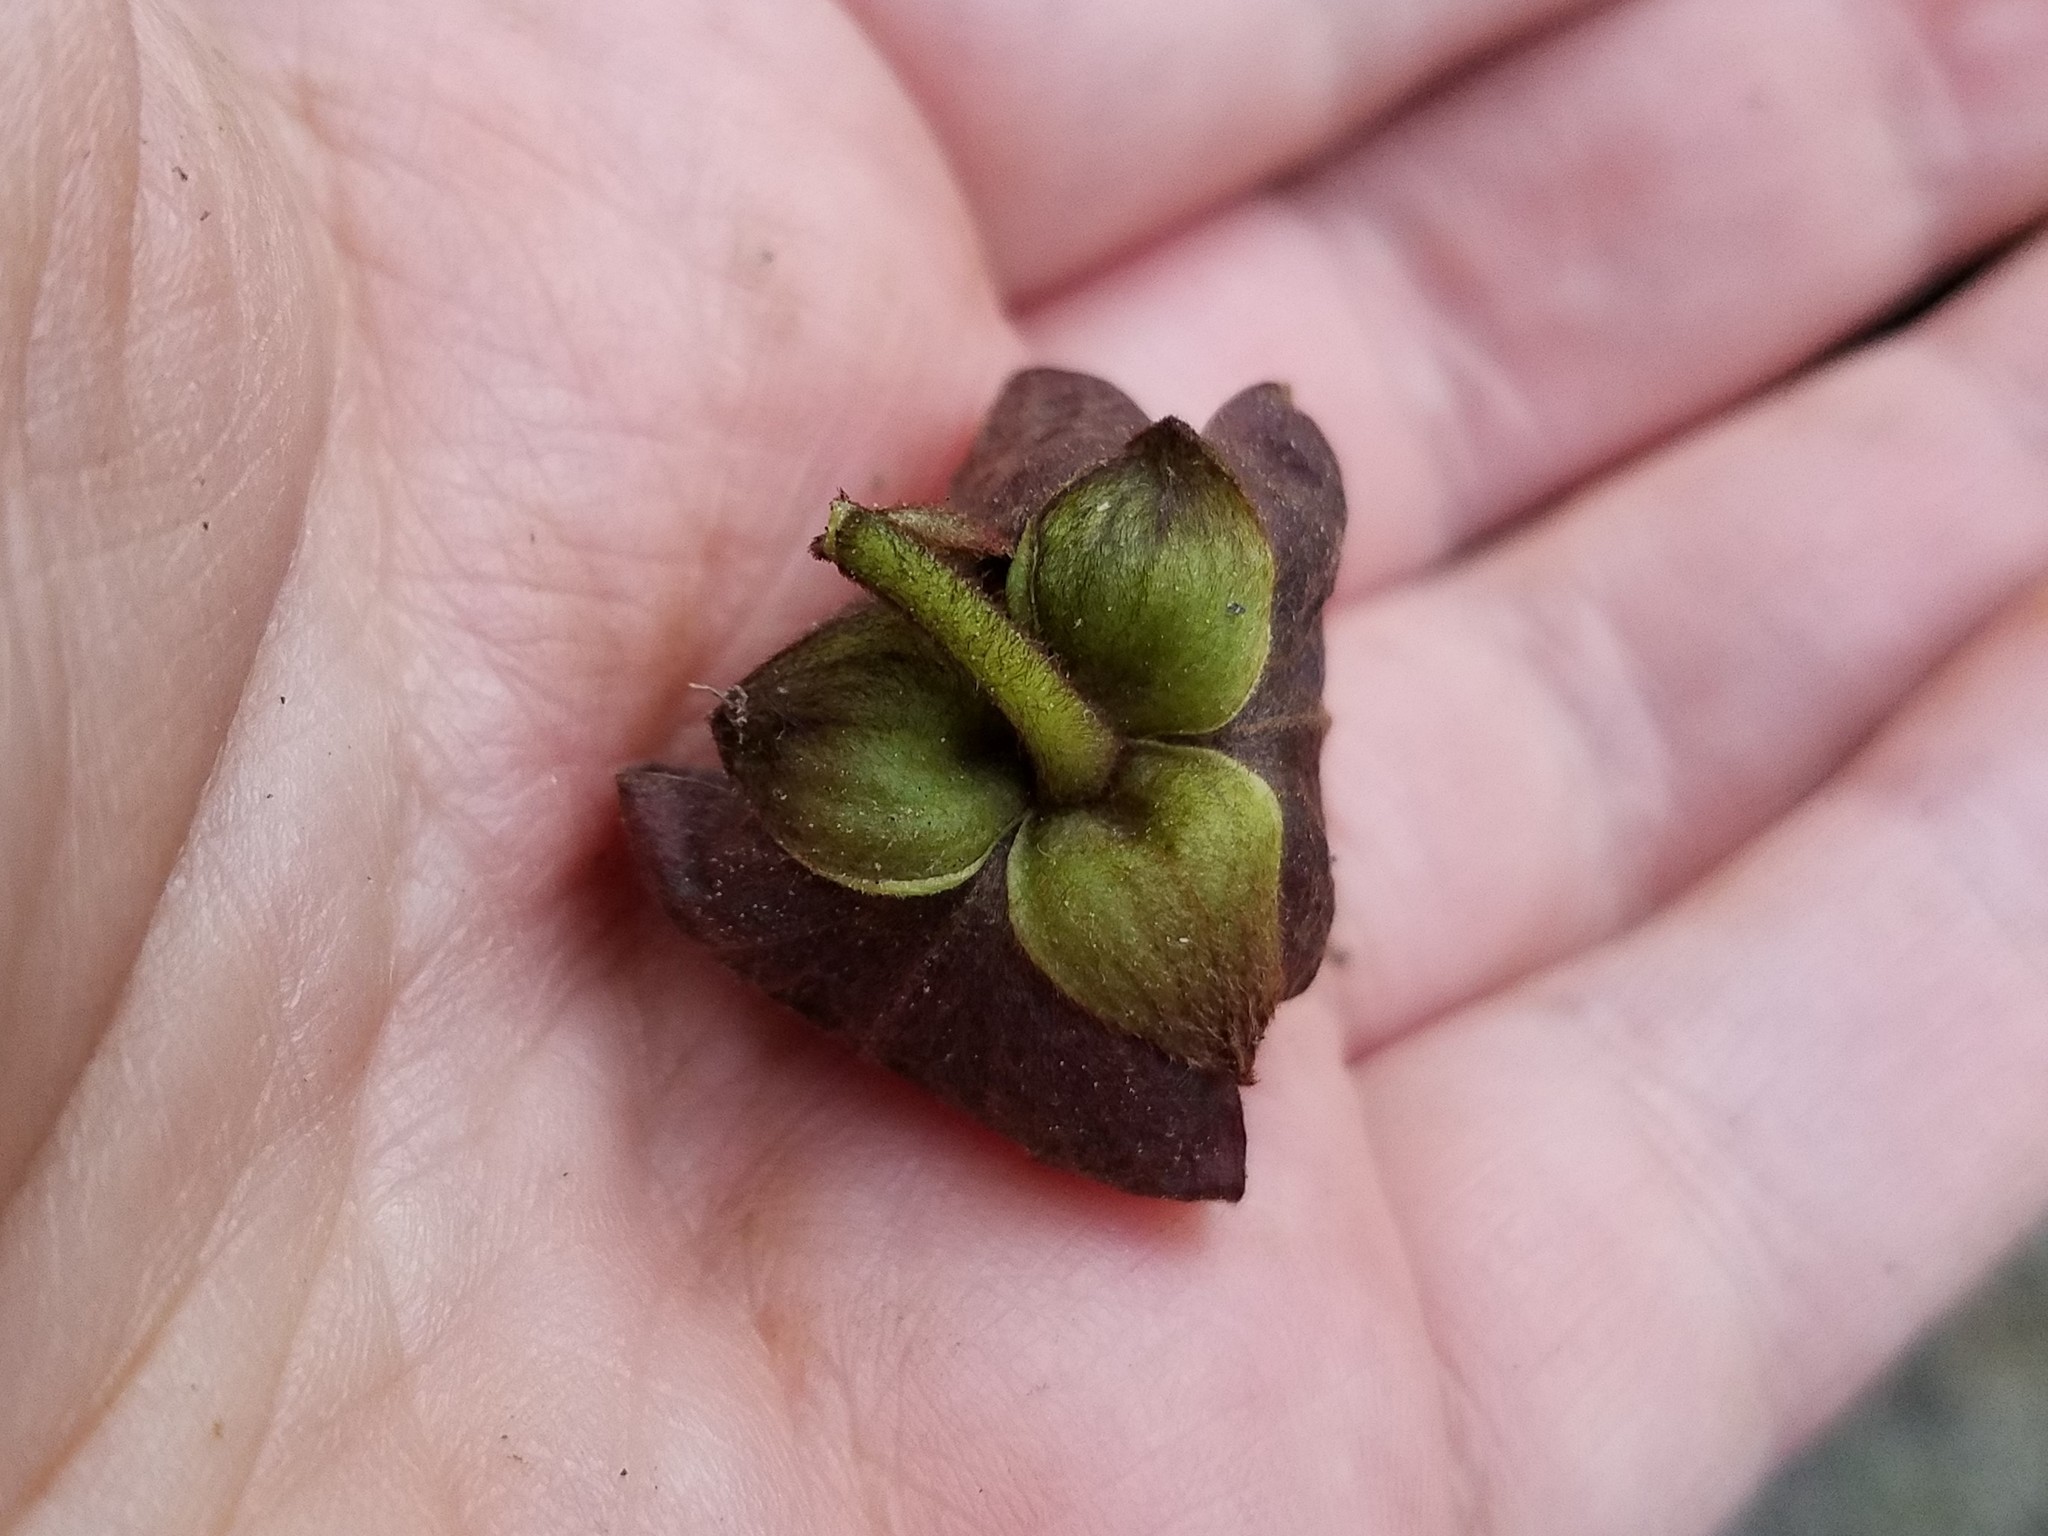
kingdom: Plantae
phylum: Tracheophyta
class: Magnoliopsida
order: Magnoliales
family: Annonaceae
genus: Asimina
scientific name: Asimina triloba
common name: Dog-banana
